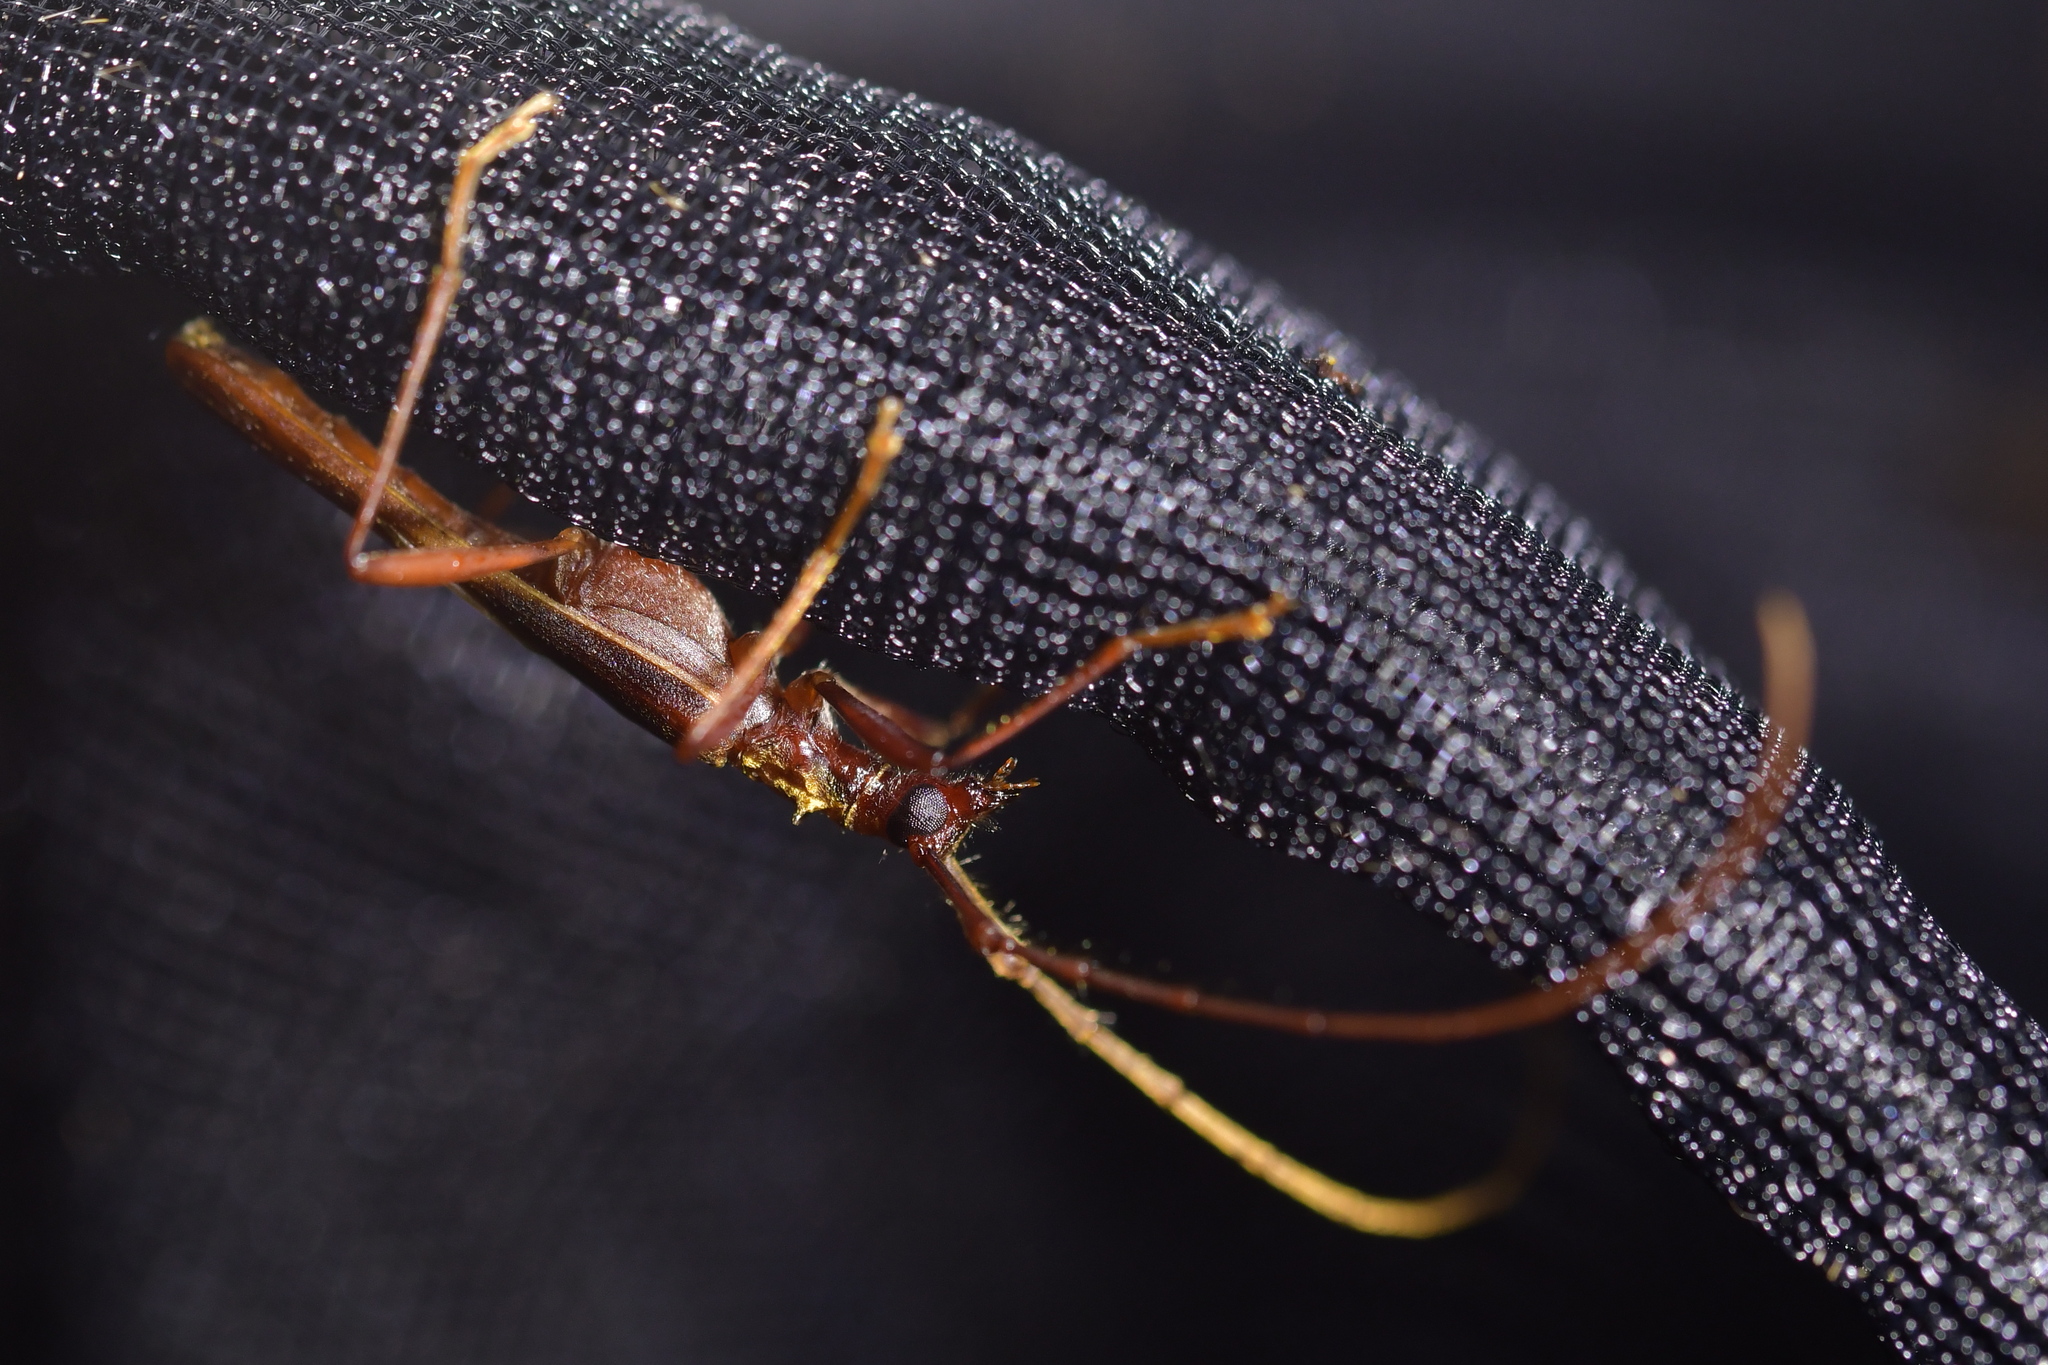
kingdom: Animalia
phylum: Arthropoda
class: Insecta
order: Coleoptera
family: Cerambycidae
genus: Calliprason
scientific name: Calliprason costifer
